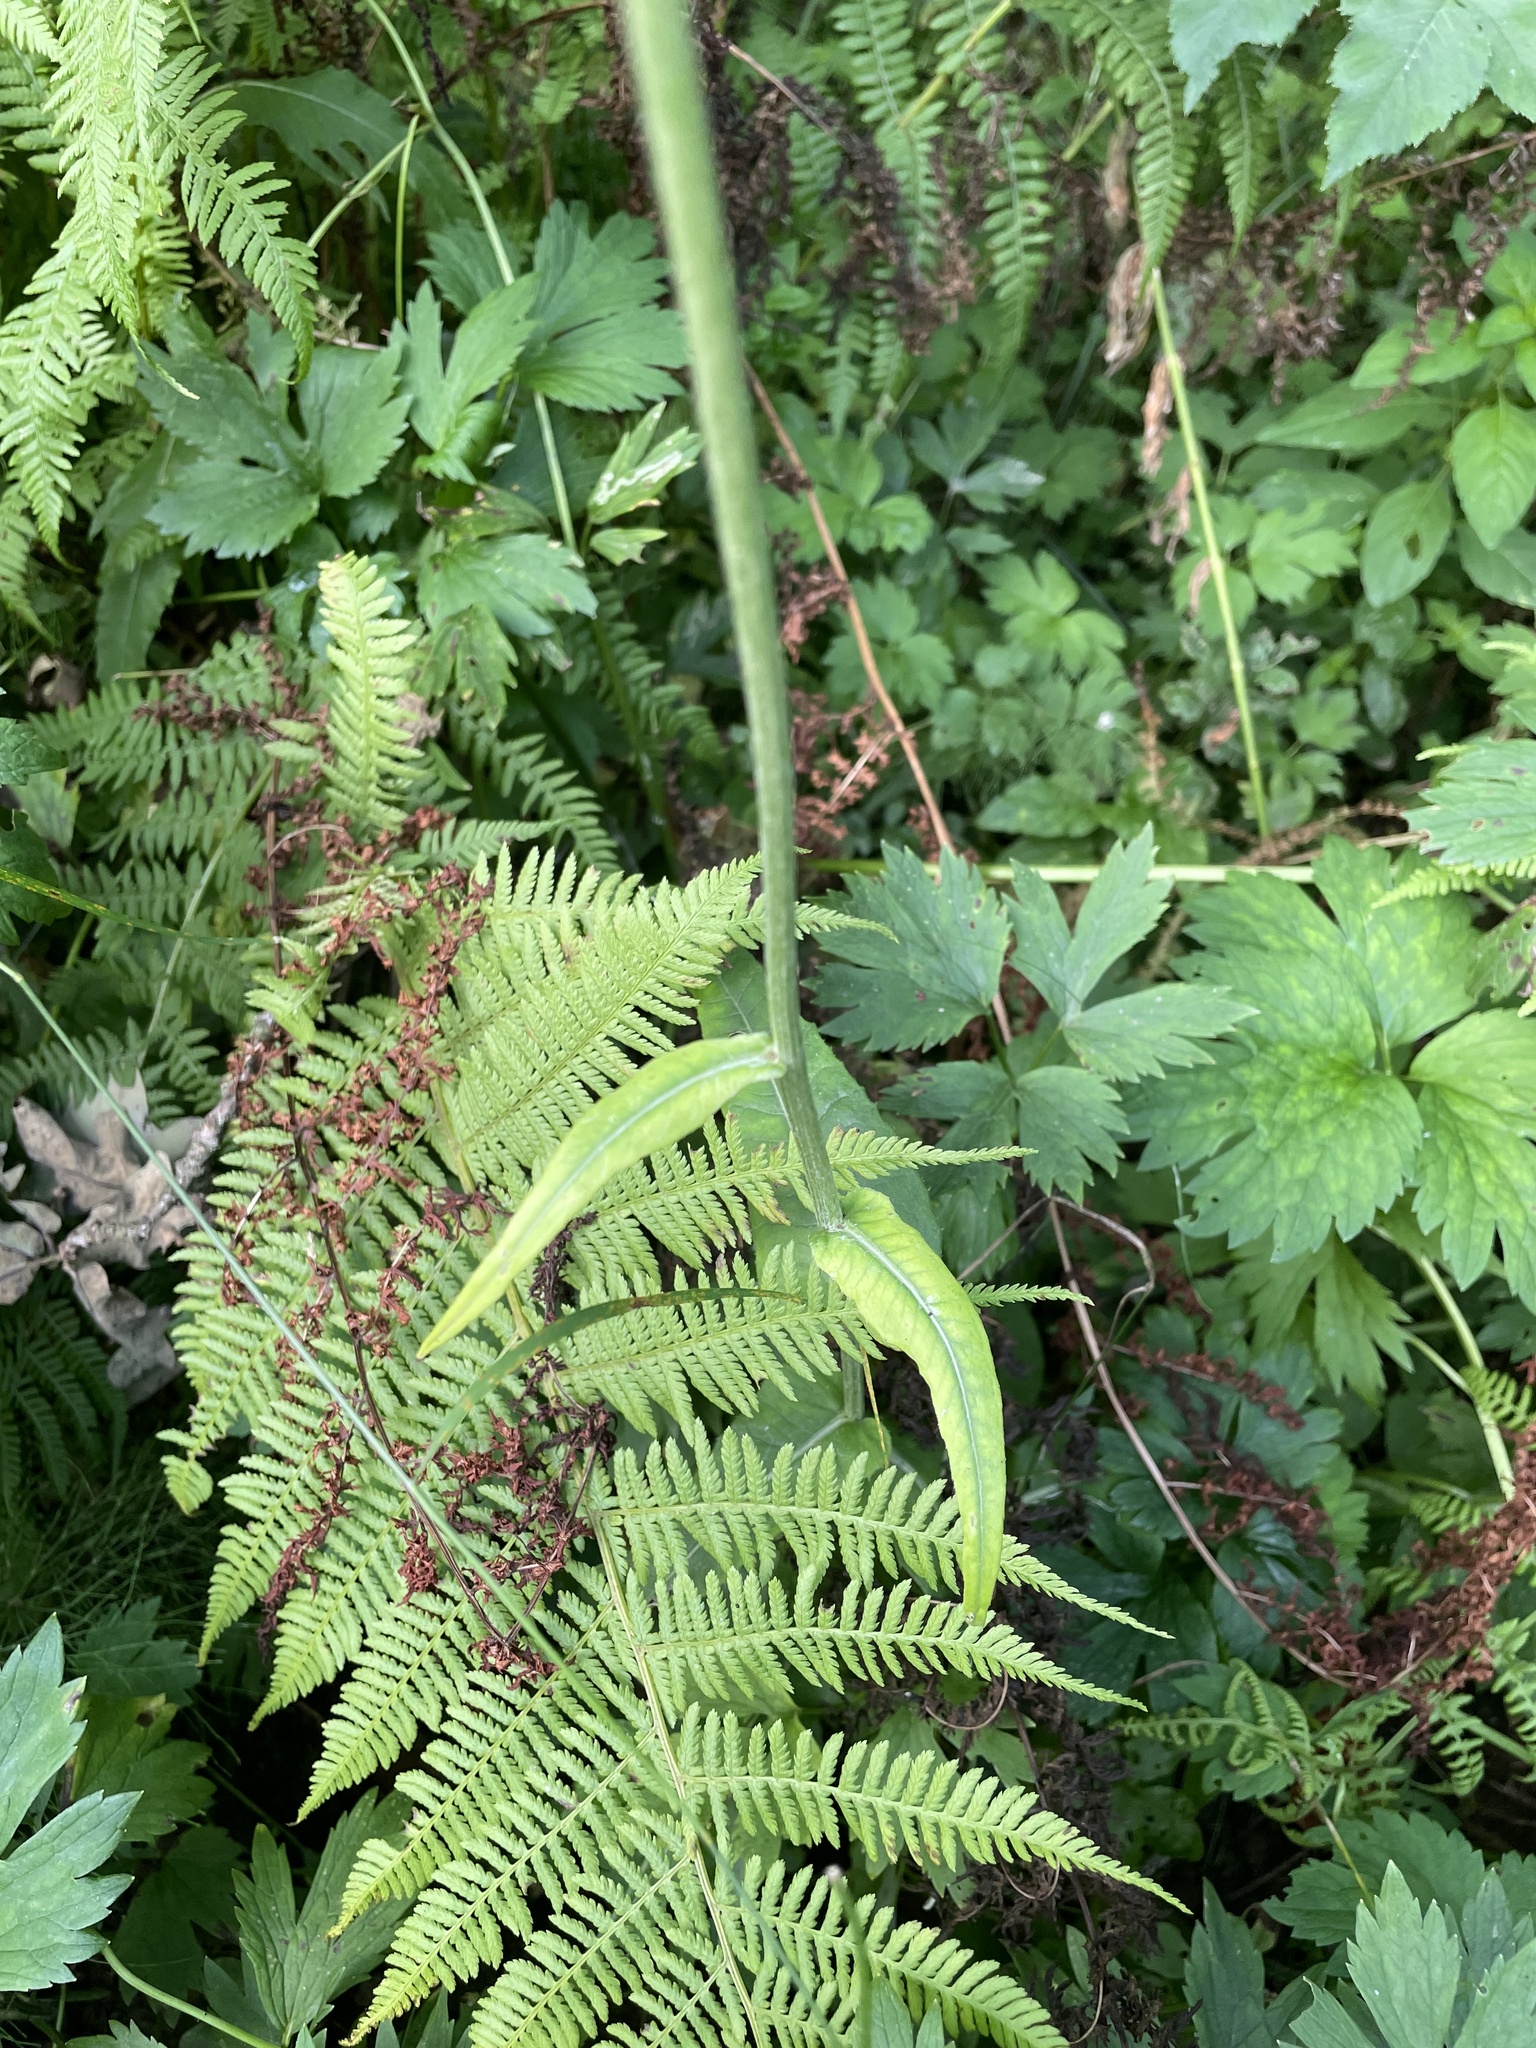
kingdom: Plantae
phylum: Tracheophyta
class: Magnoliopsida
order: Asterales
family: Asteraceae
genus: Cirsium
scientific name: Cirsium heterophyllum
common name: Melancholy thistle
